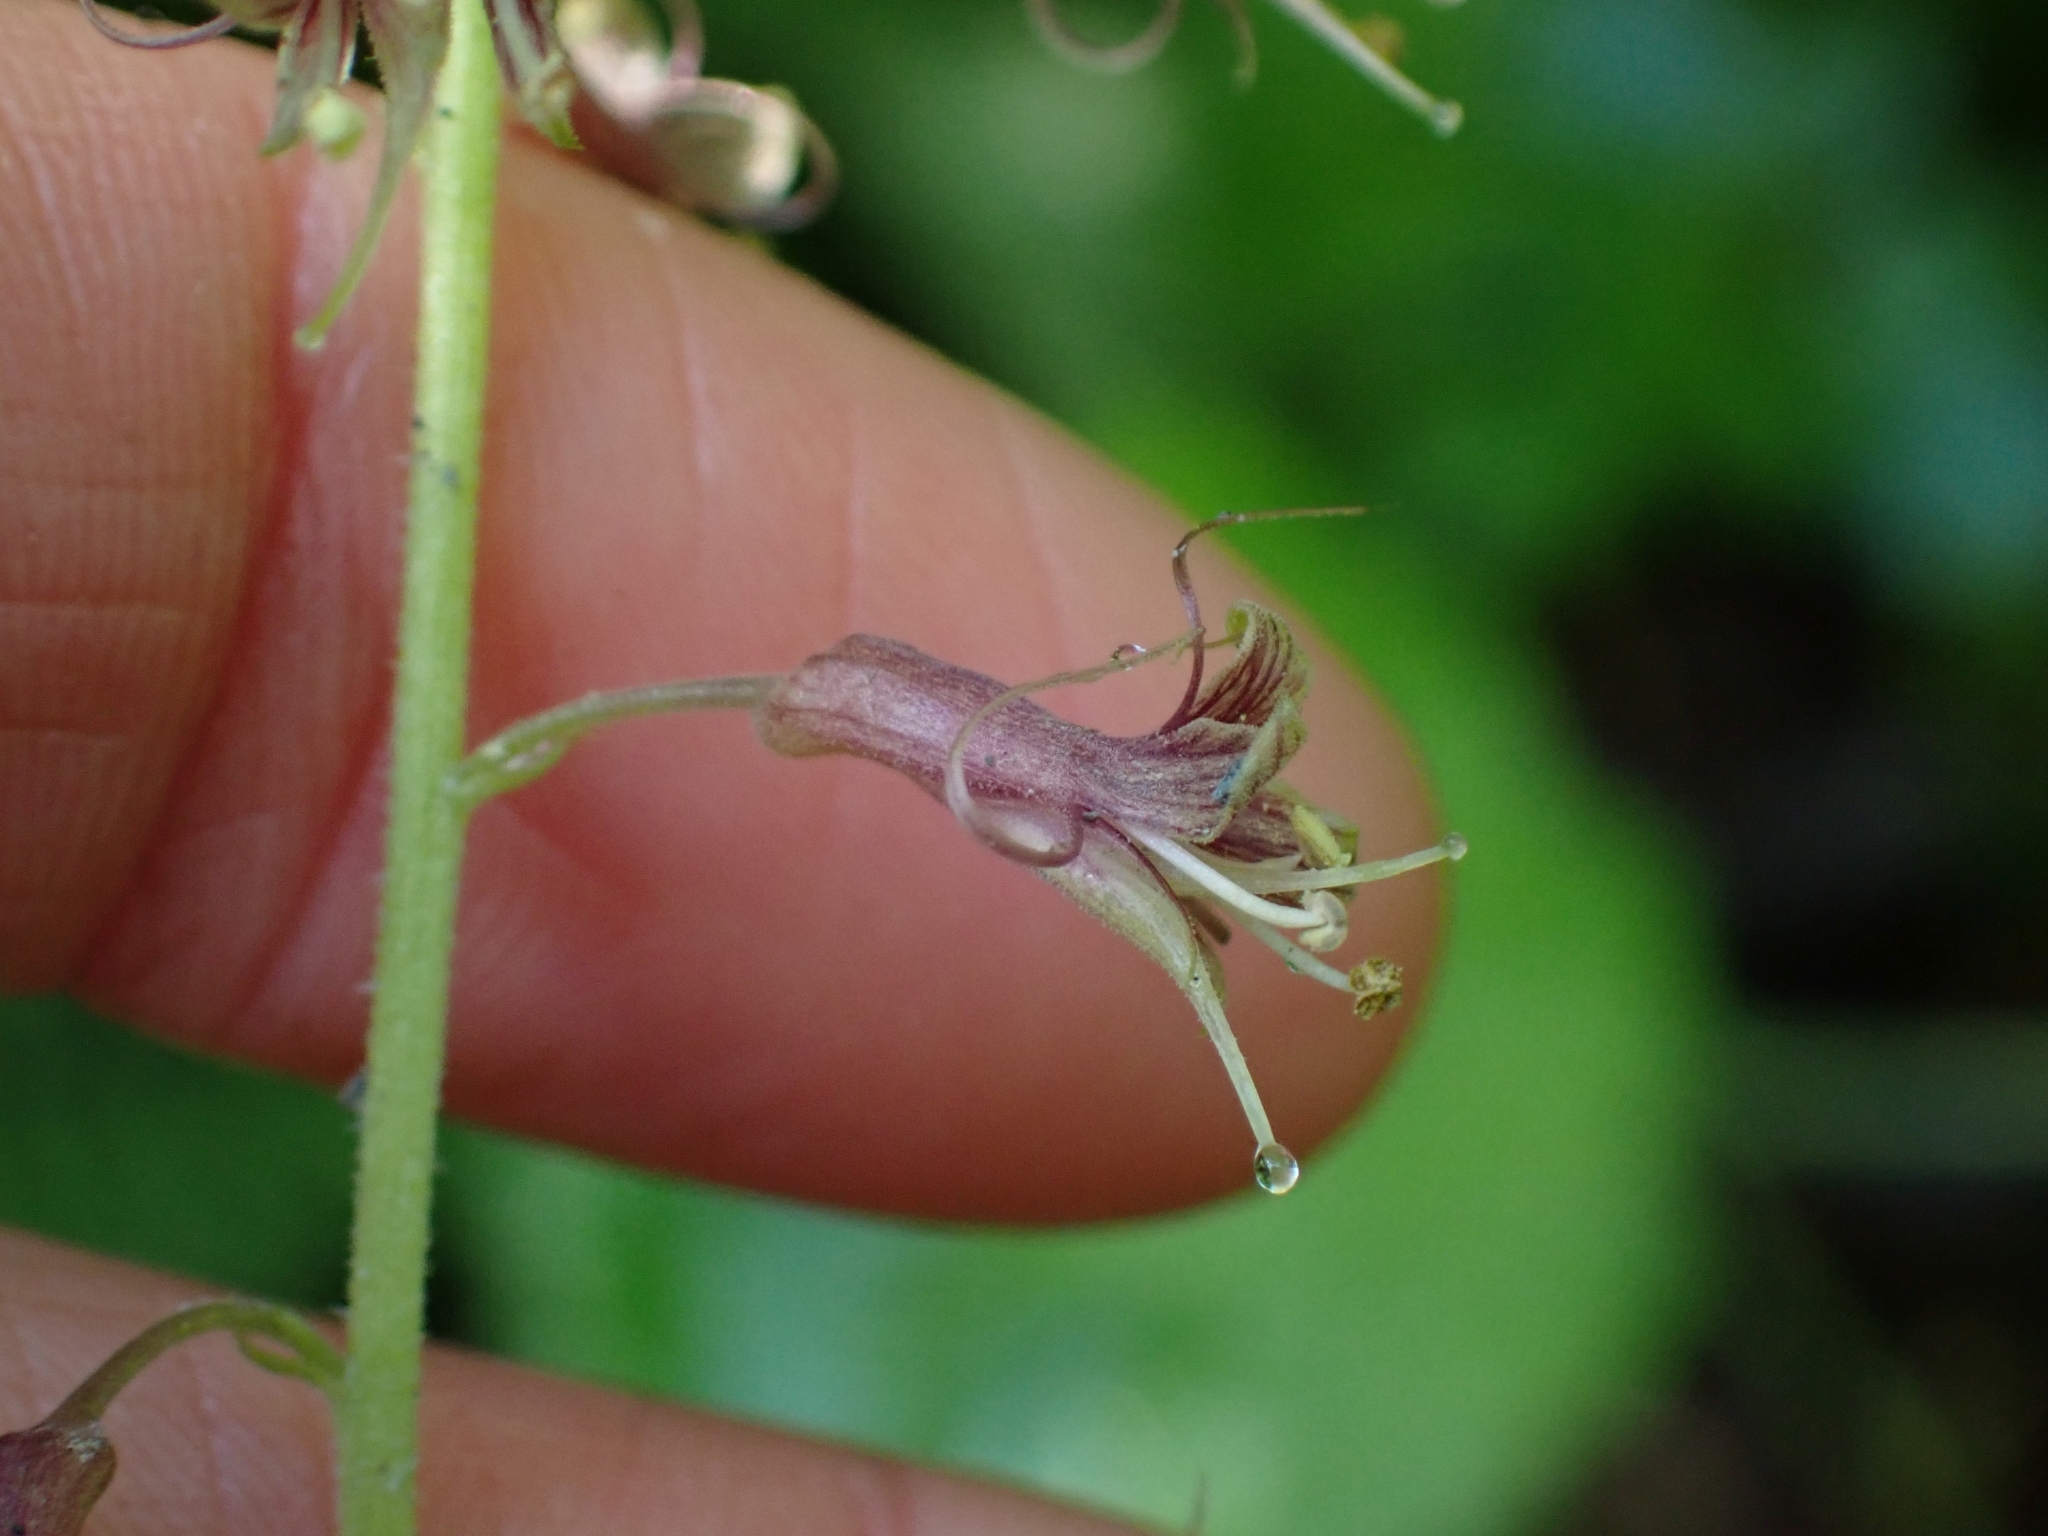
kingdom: Plantae
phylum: Tracheophyta
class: Magnoliopsida
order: Saxifragales
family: Saxifragaceae
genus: Tolmiea
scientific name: Tolmiea menziesii
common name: Pick-a-back-plant
